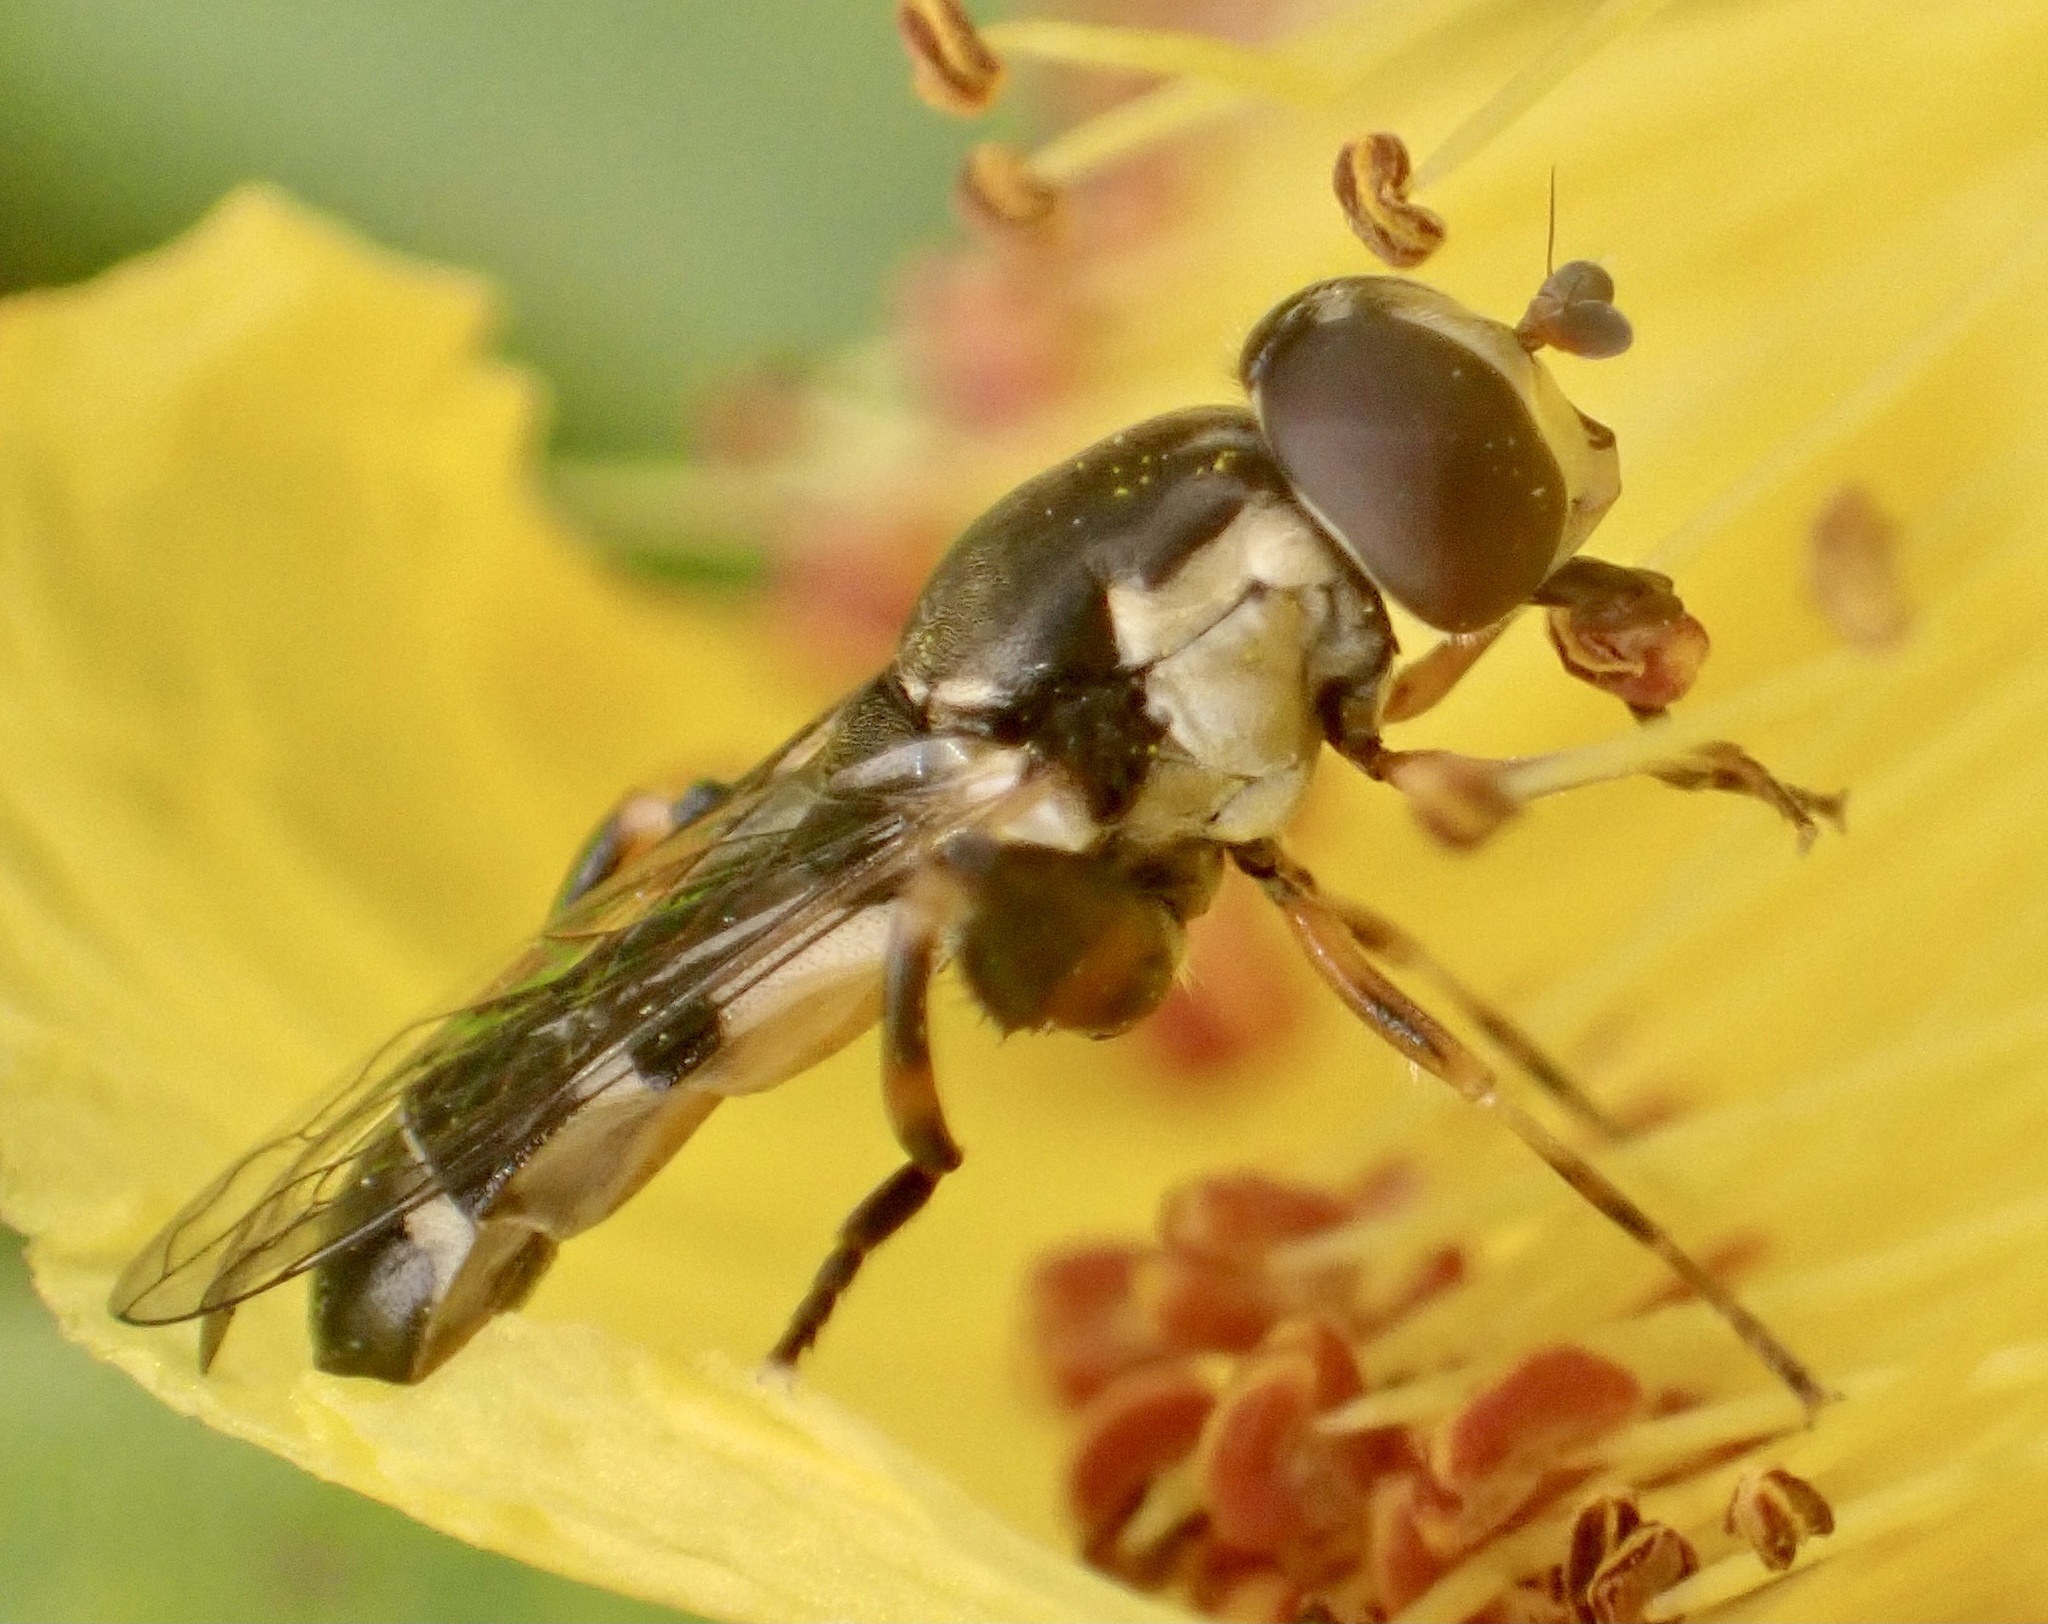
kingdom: Animalia
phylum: Arthropoda
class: Insecta
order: Diptera
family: Syrphidae
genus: Syritta
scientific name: Syritta pipiens
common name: Hover fly
